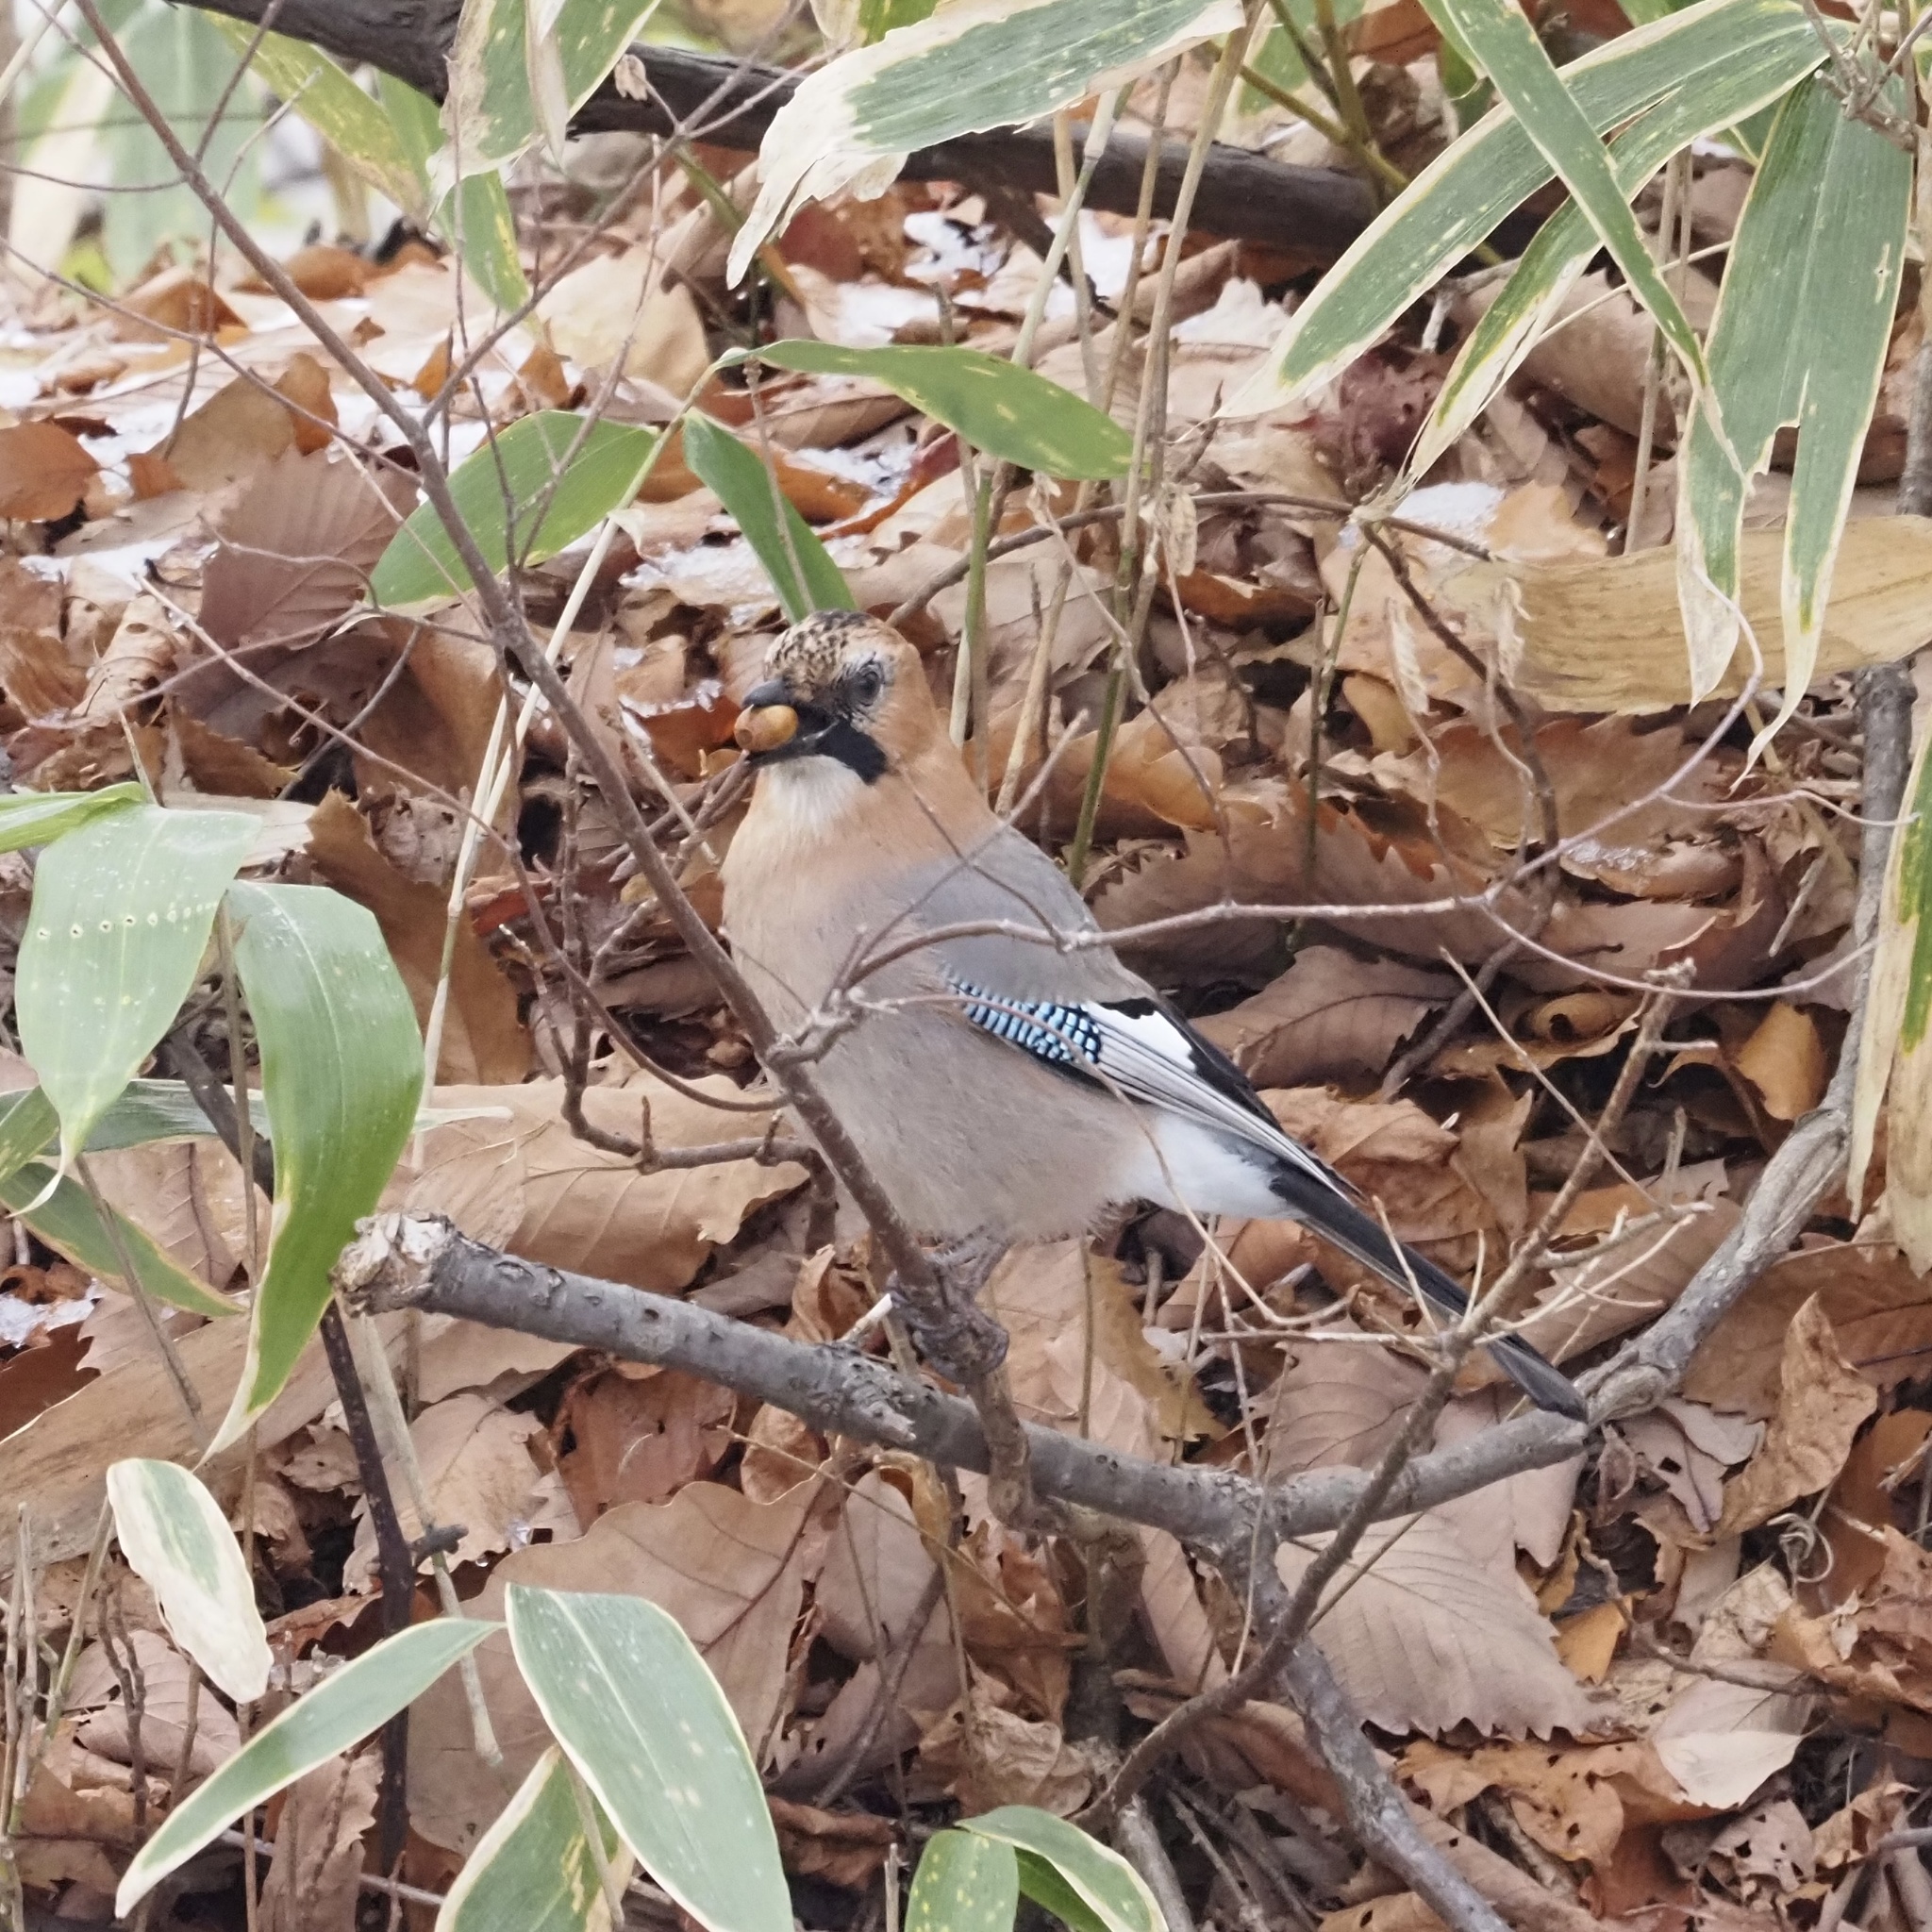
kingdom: Animalia
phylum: Chordata
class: Aves
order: Passeriformes
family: Corvidae
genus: Garrulus
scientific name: Garrulus glandarius
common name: Eurasian jay
